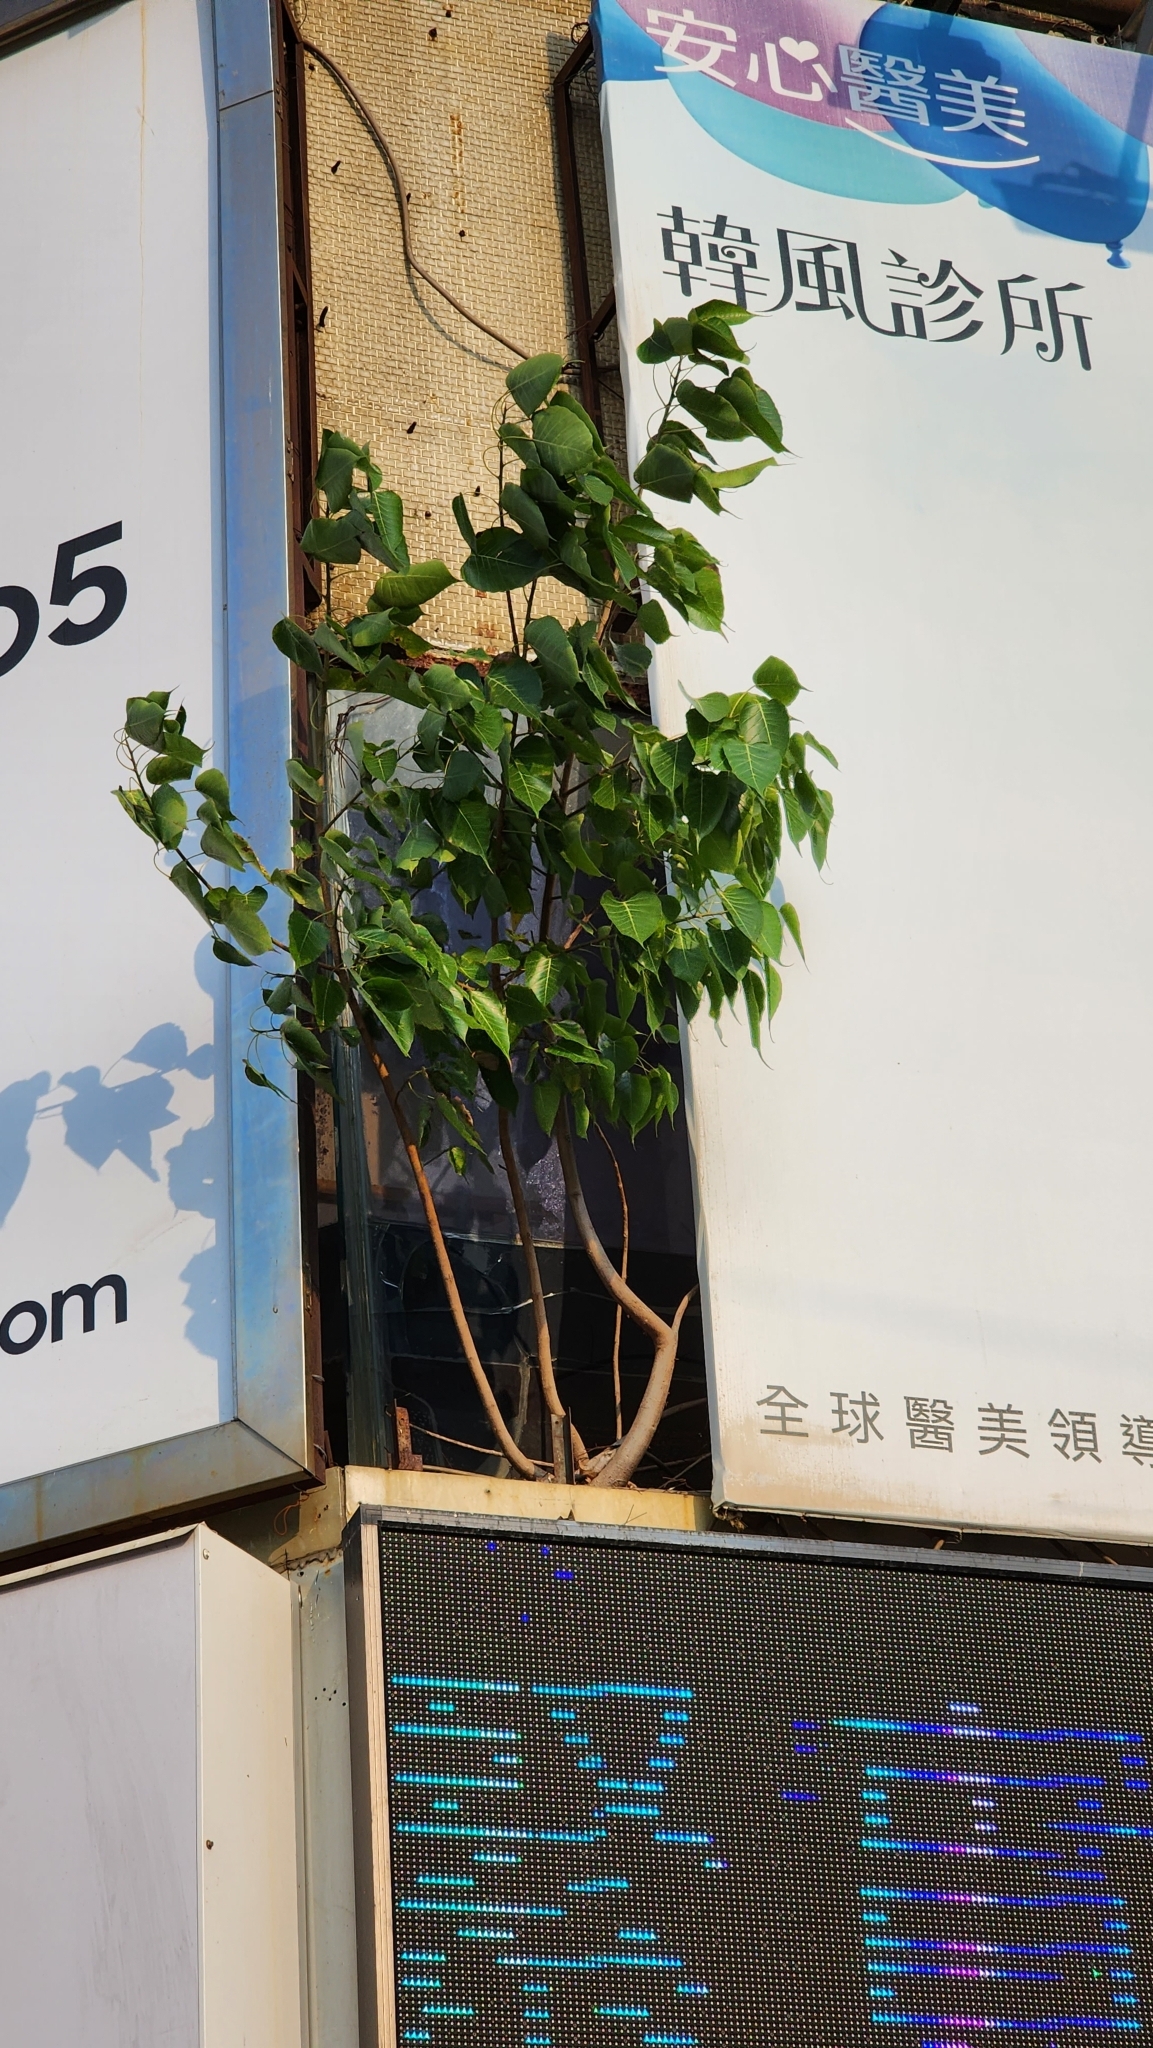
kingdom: Plantae
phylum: Tracheophyta
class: Magnoliopsida
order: Rosales
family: Moraceae
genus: Ficus
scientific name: Ficus religiosa
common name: Bodhi tree
